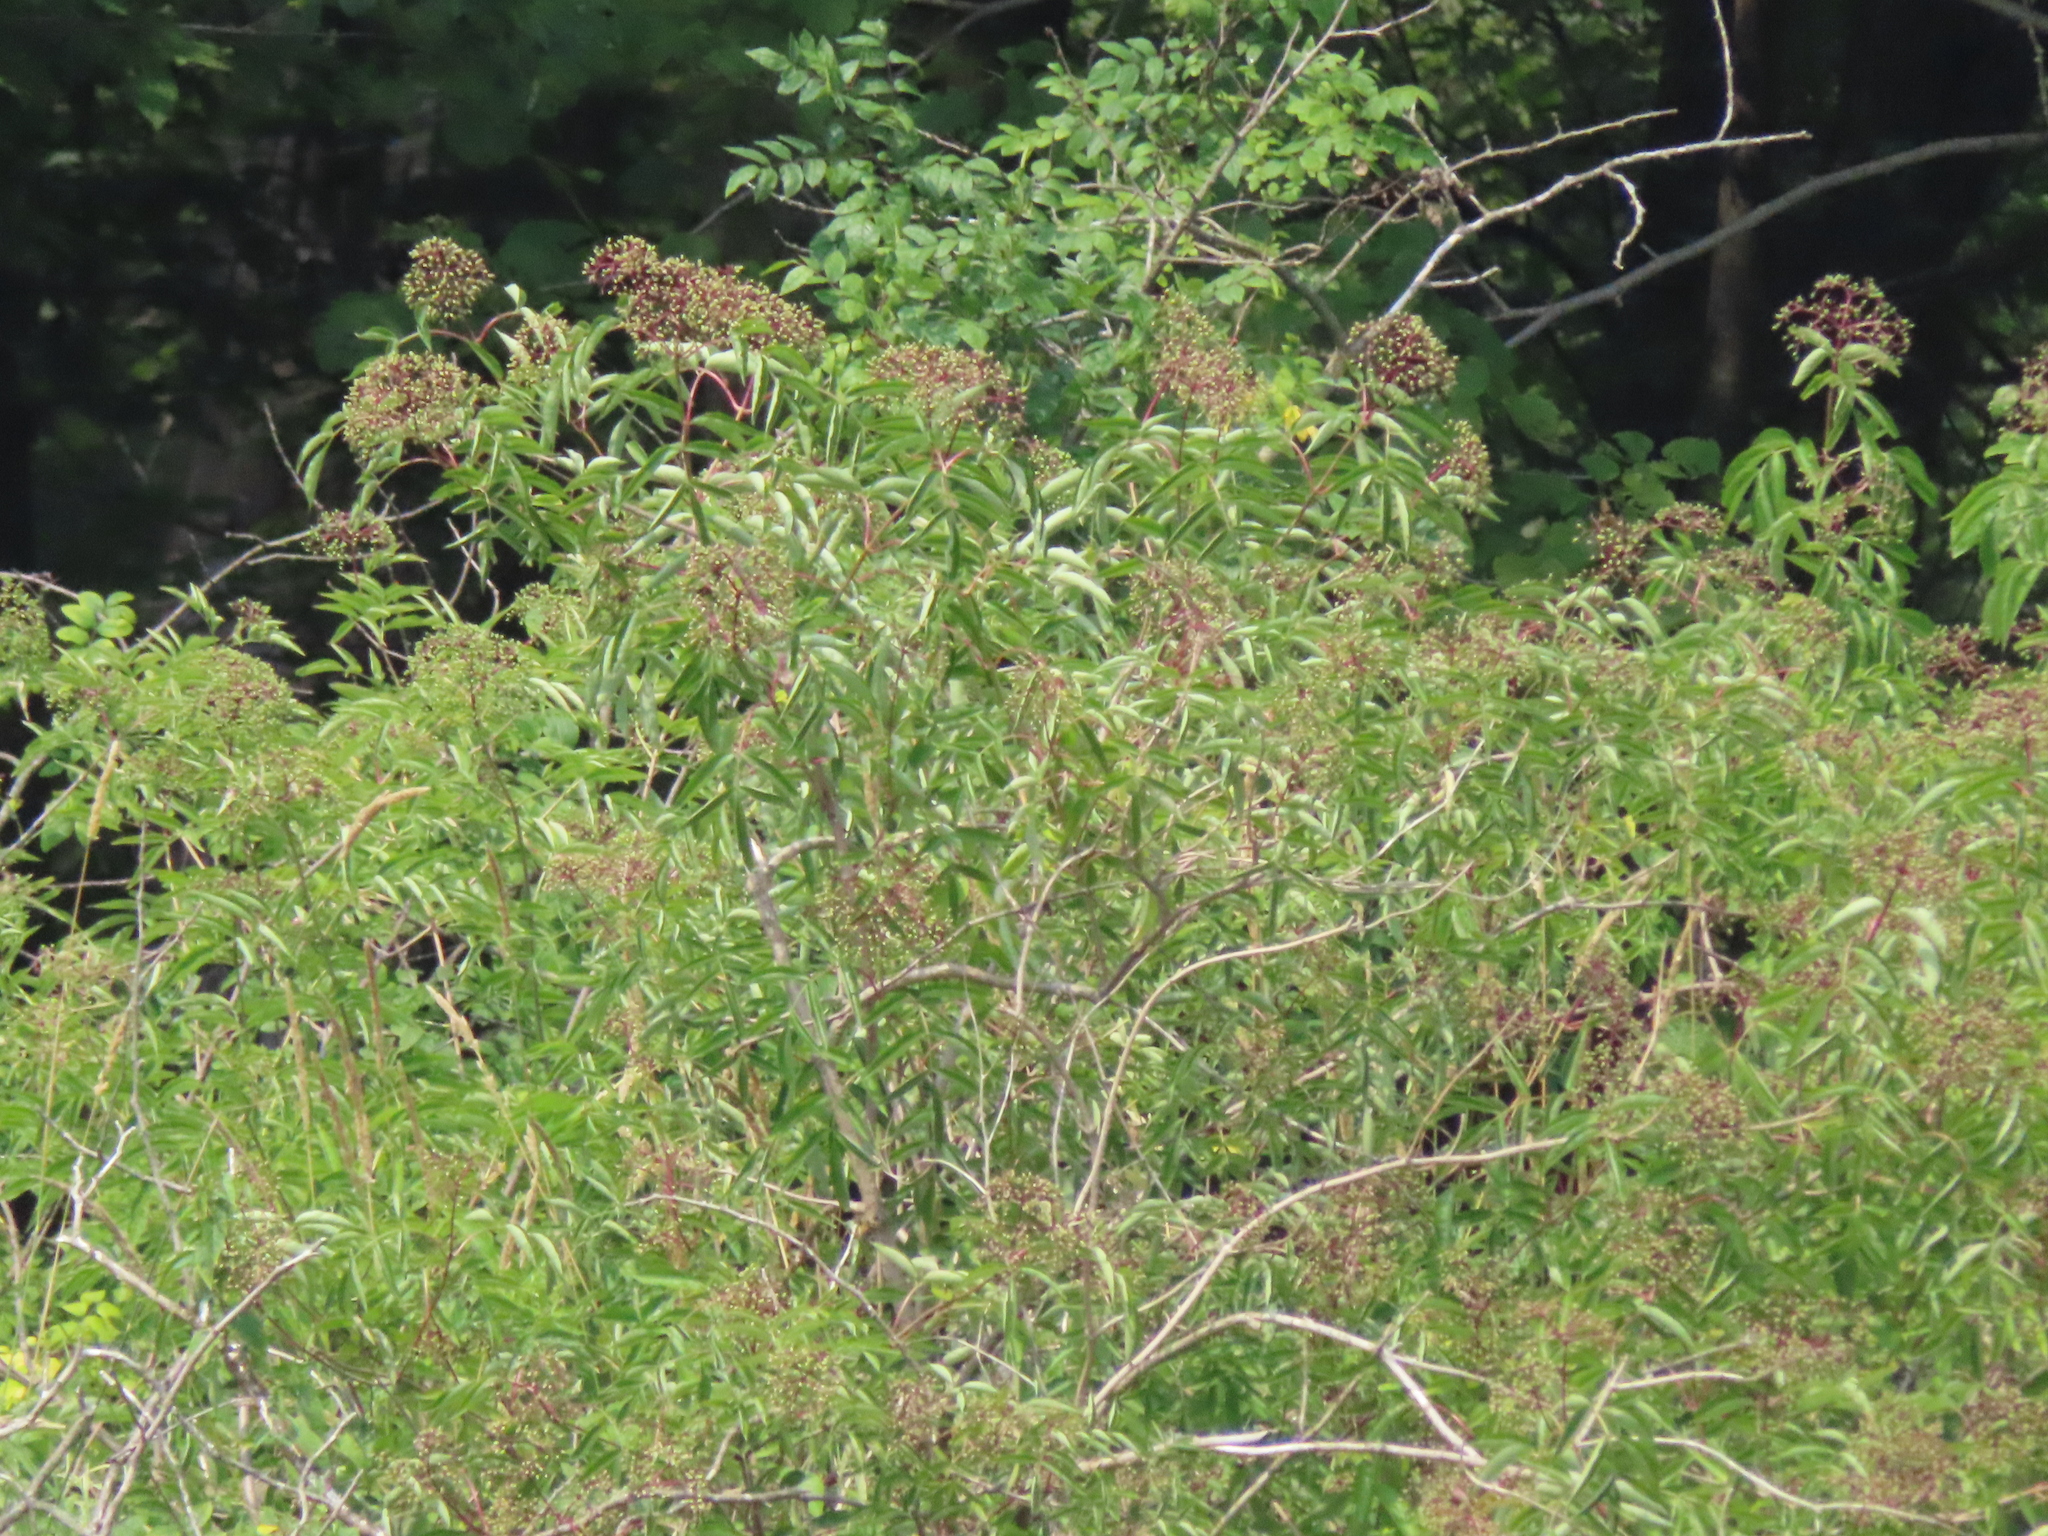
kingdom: Plantae
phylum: Tracheophyta
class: Magnoliopsida
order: Dipsacales
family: Viburnaceae
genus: Sambucus
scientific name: Sambucus canadensis
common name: American elder
